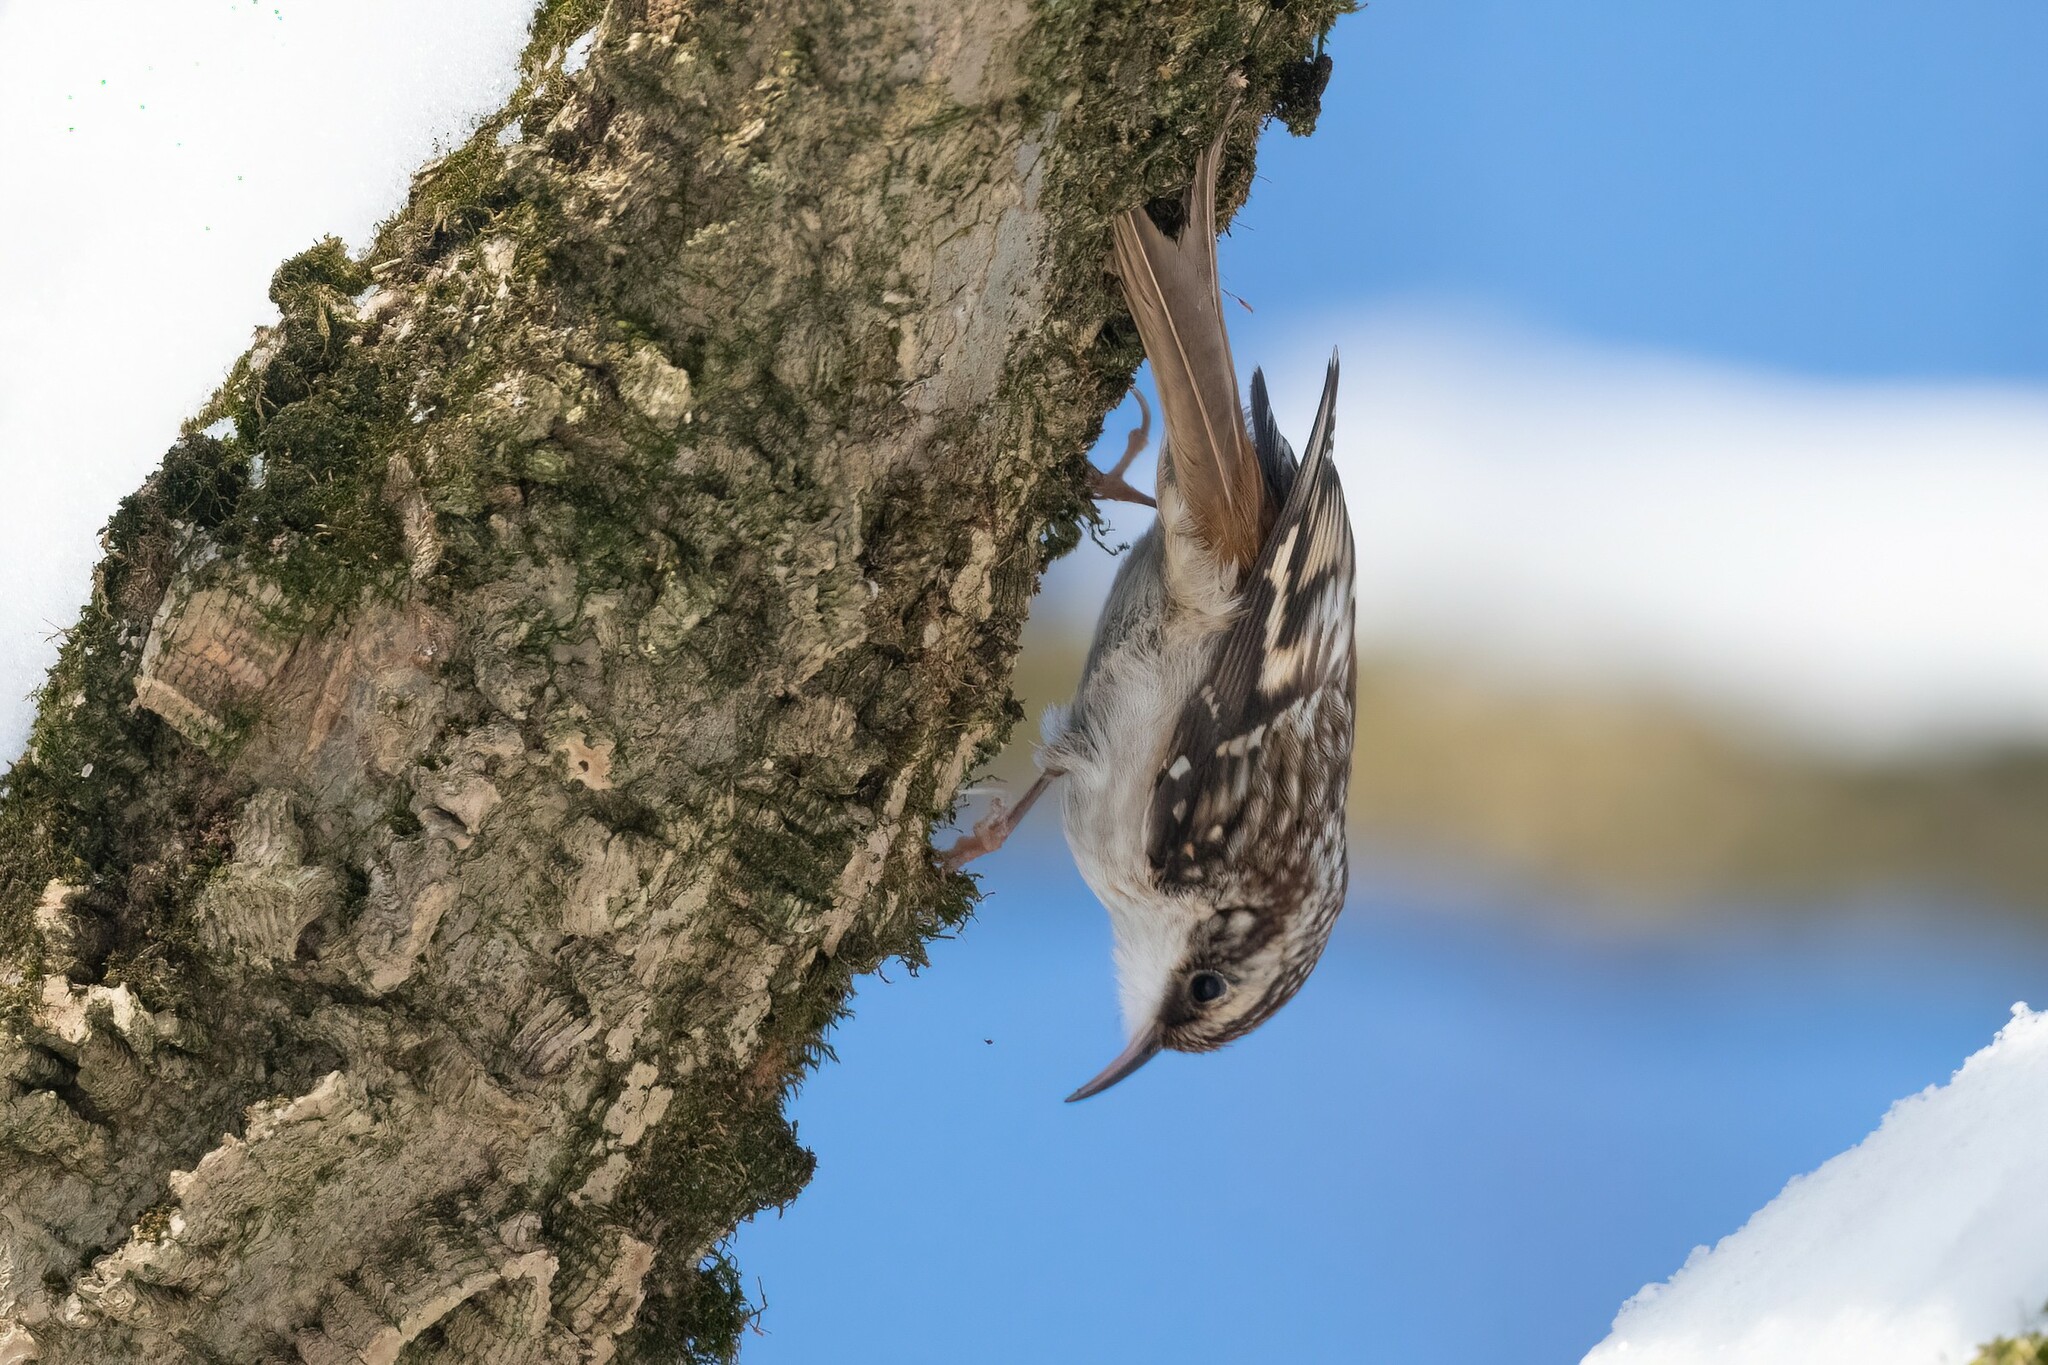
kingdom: Animalia
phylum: Chordata
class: Aves
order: Passeriformes
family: Certhiidae
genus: Certhia
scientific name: Certhia americana
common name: Brown creeper
